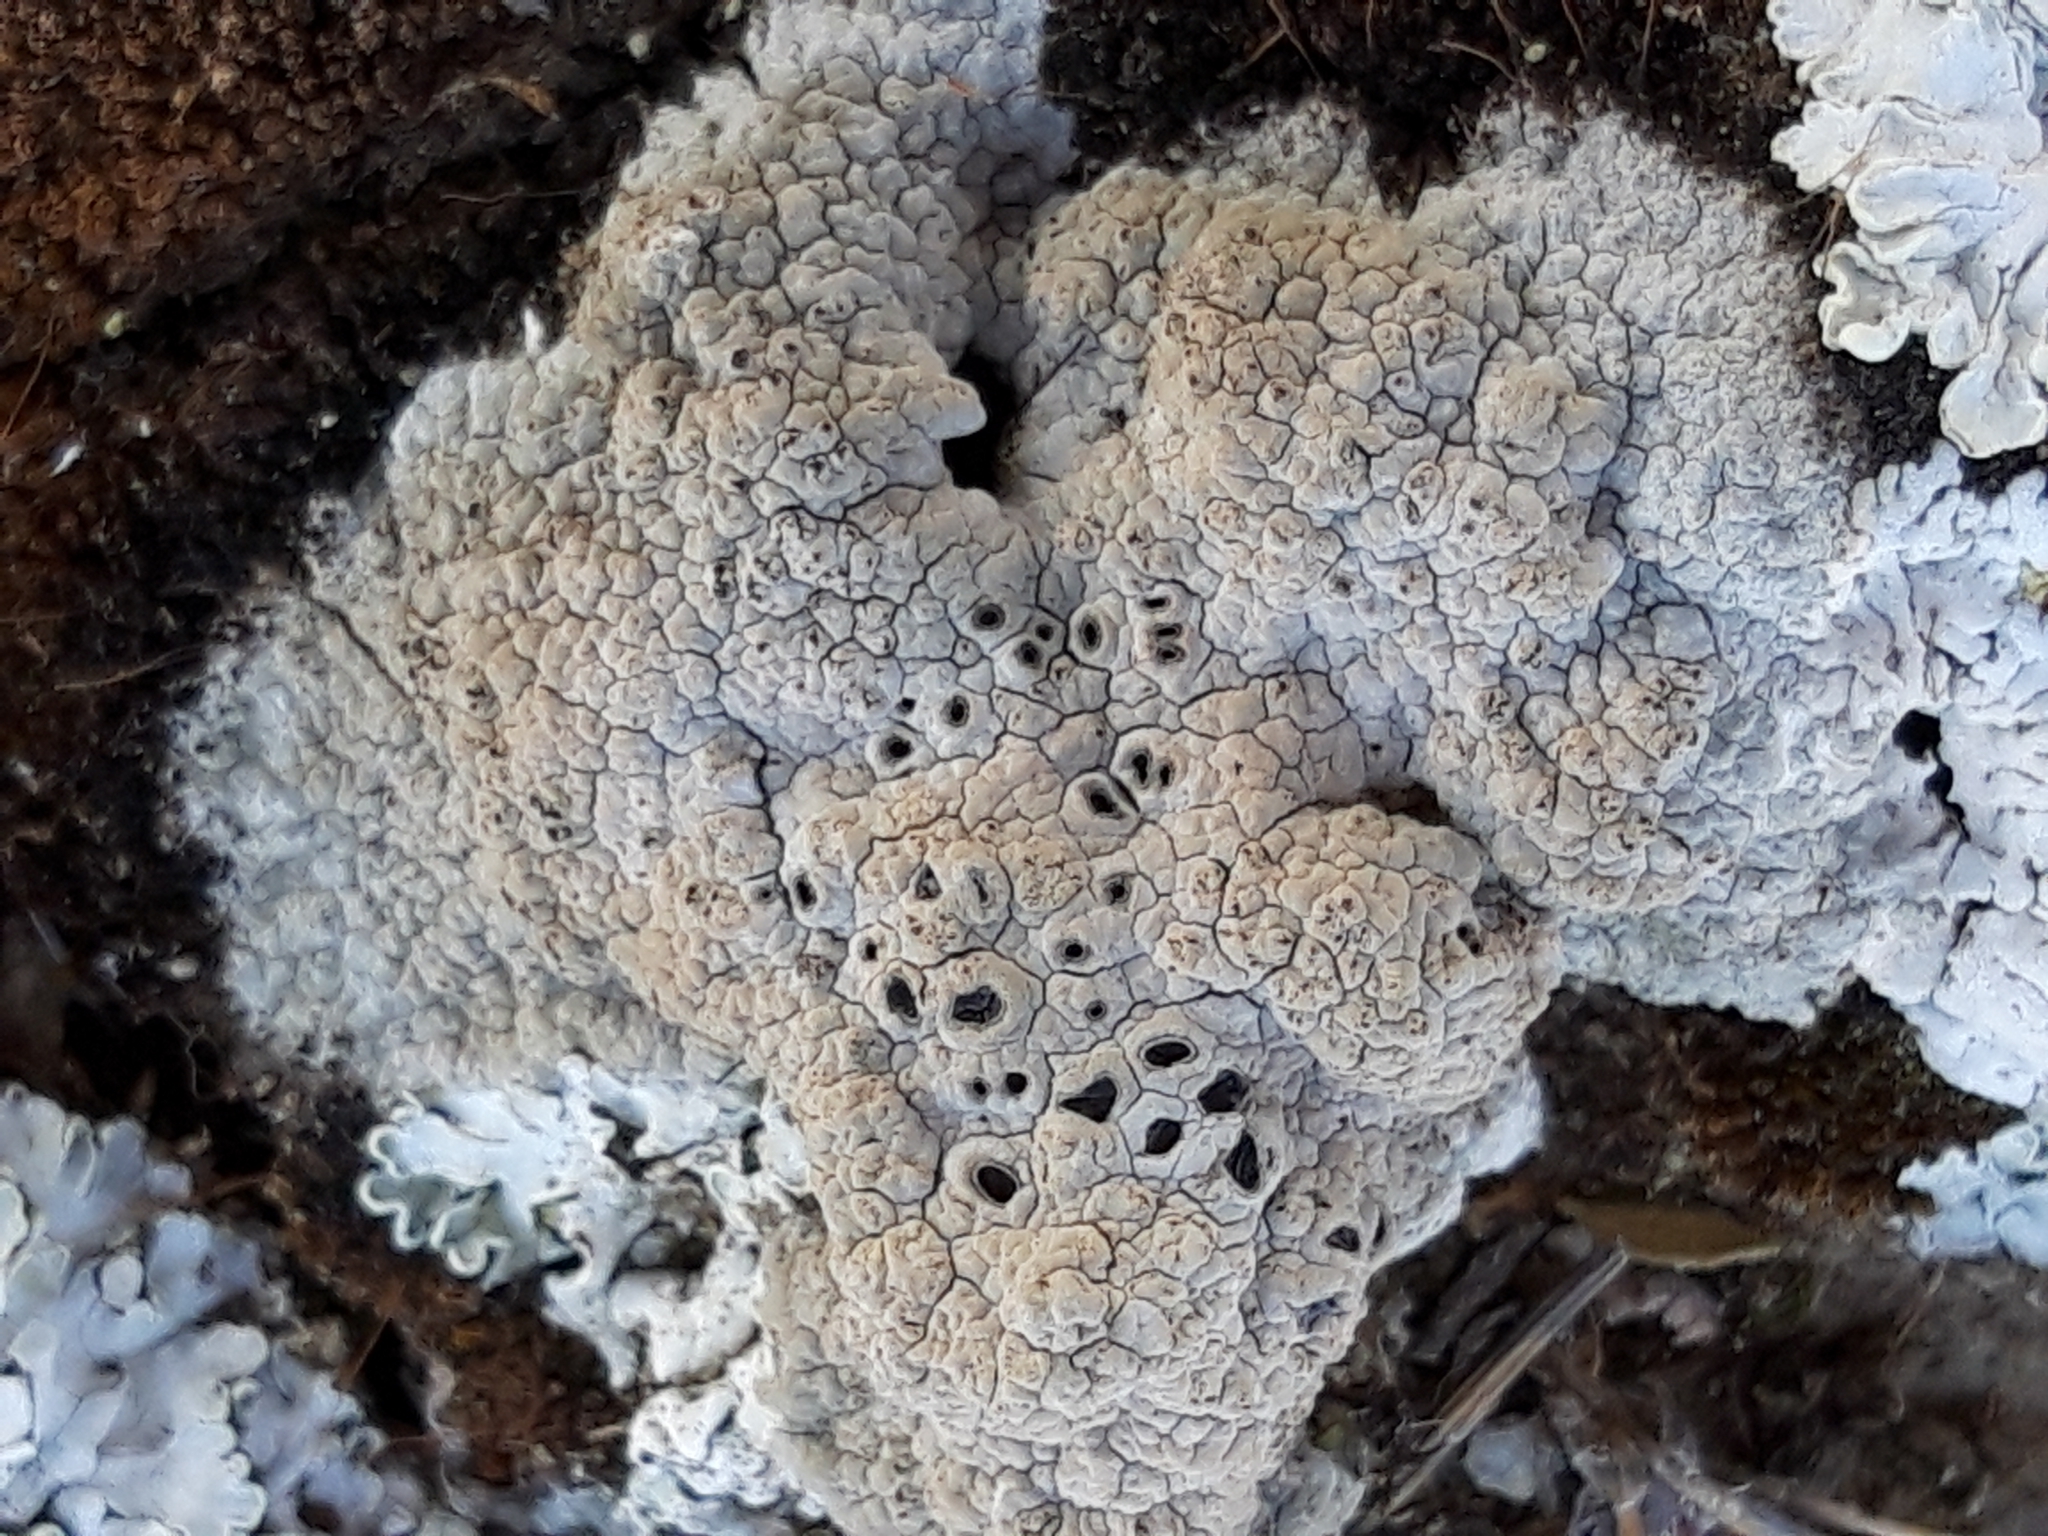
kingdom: Fungi
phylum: Ascomycota
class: Lecanoromycetes
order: Ostropales
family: Graphidaceae
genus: Diploschistes
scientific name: Diploschistes diacapsis
